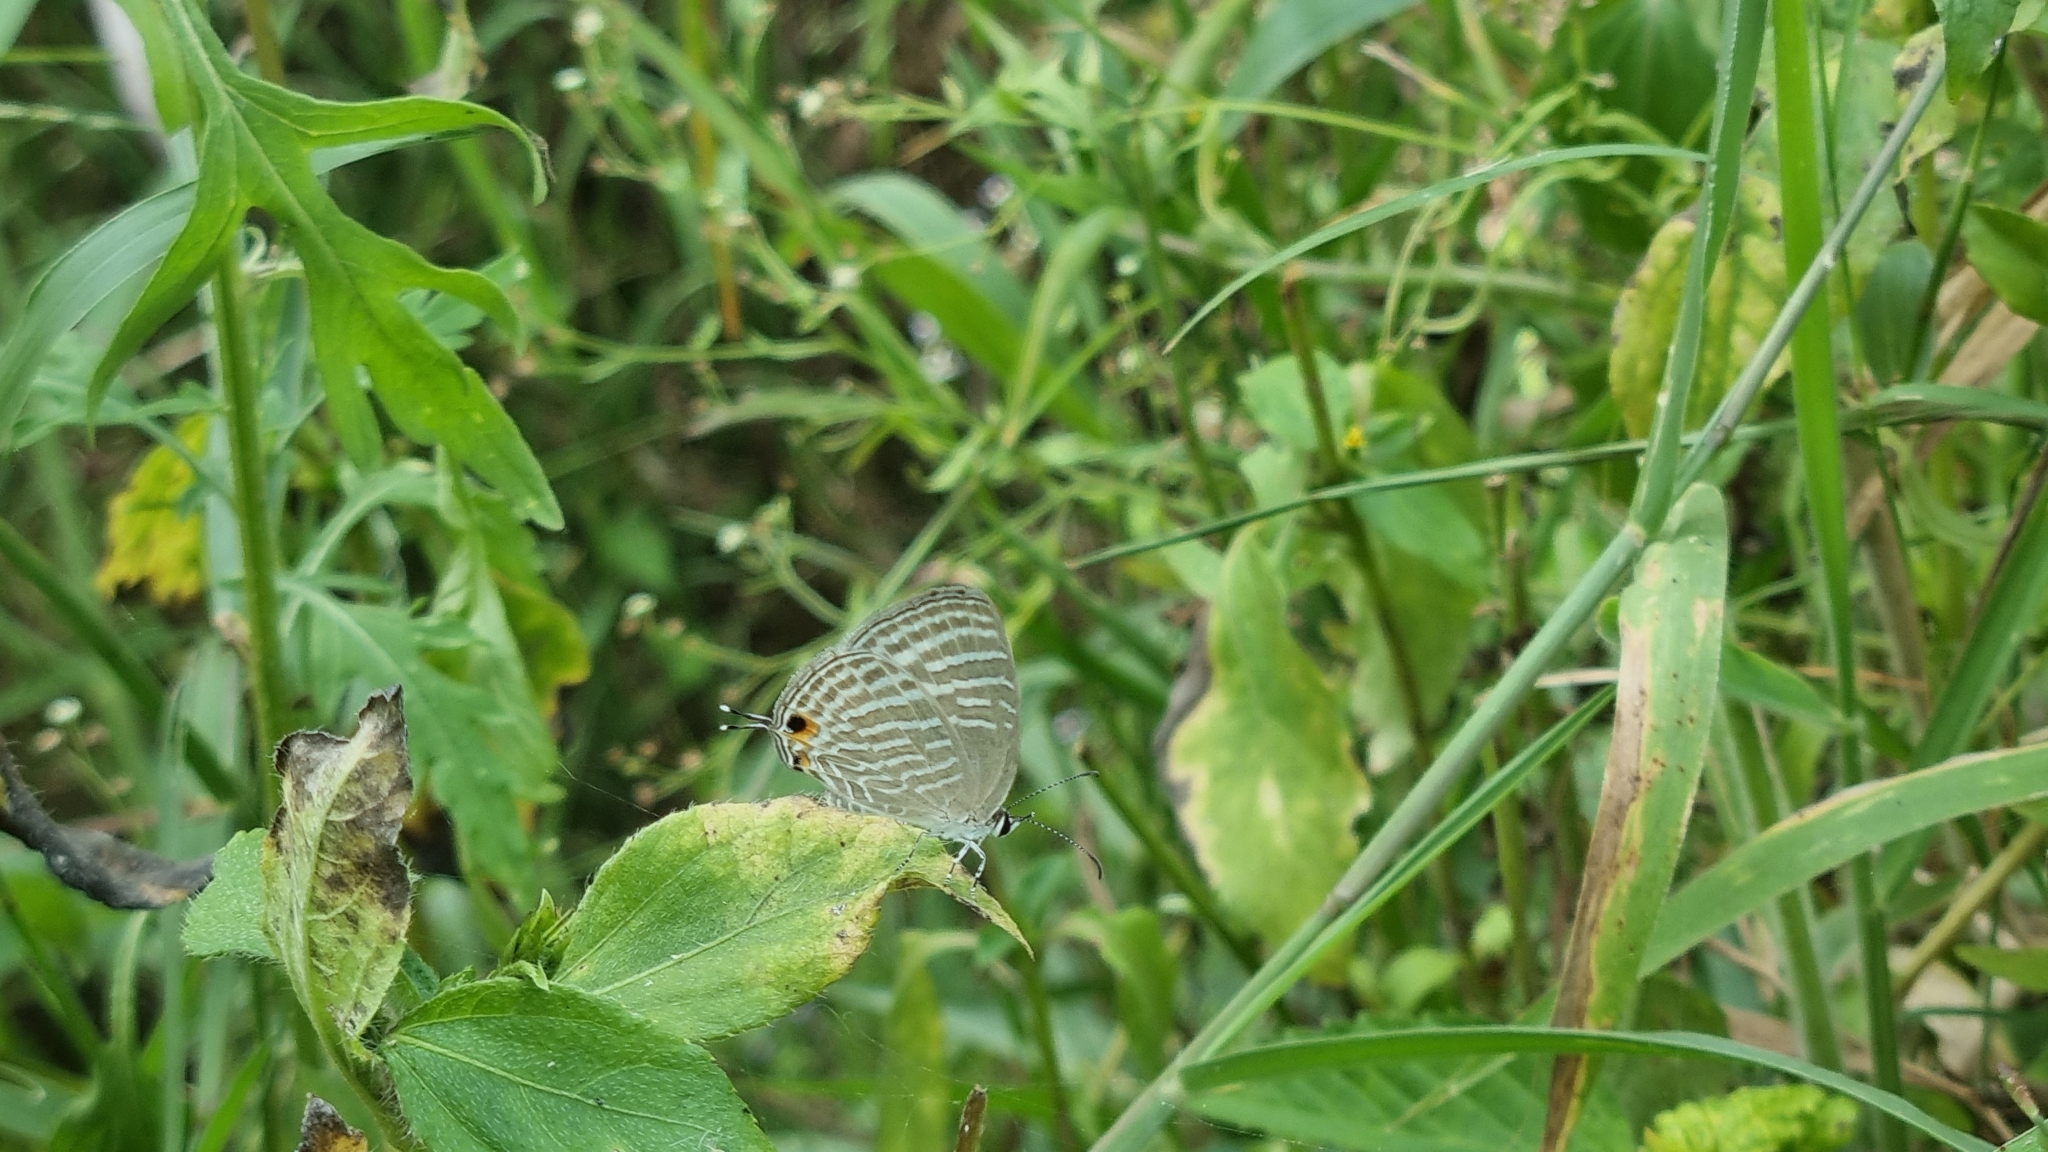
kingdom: Animalia
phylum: Arthropoda
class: Insecta
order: Lepidoptera
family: Lycaenidae
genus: Jamides
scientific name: Jamides celeno
